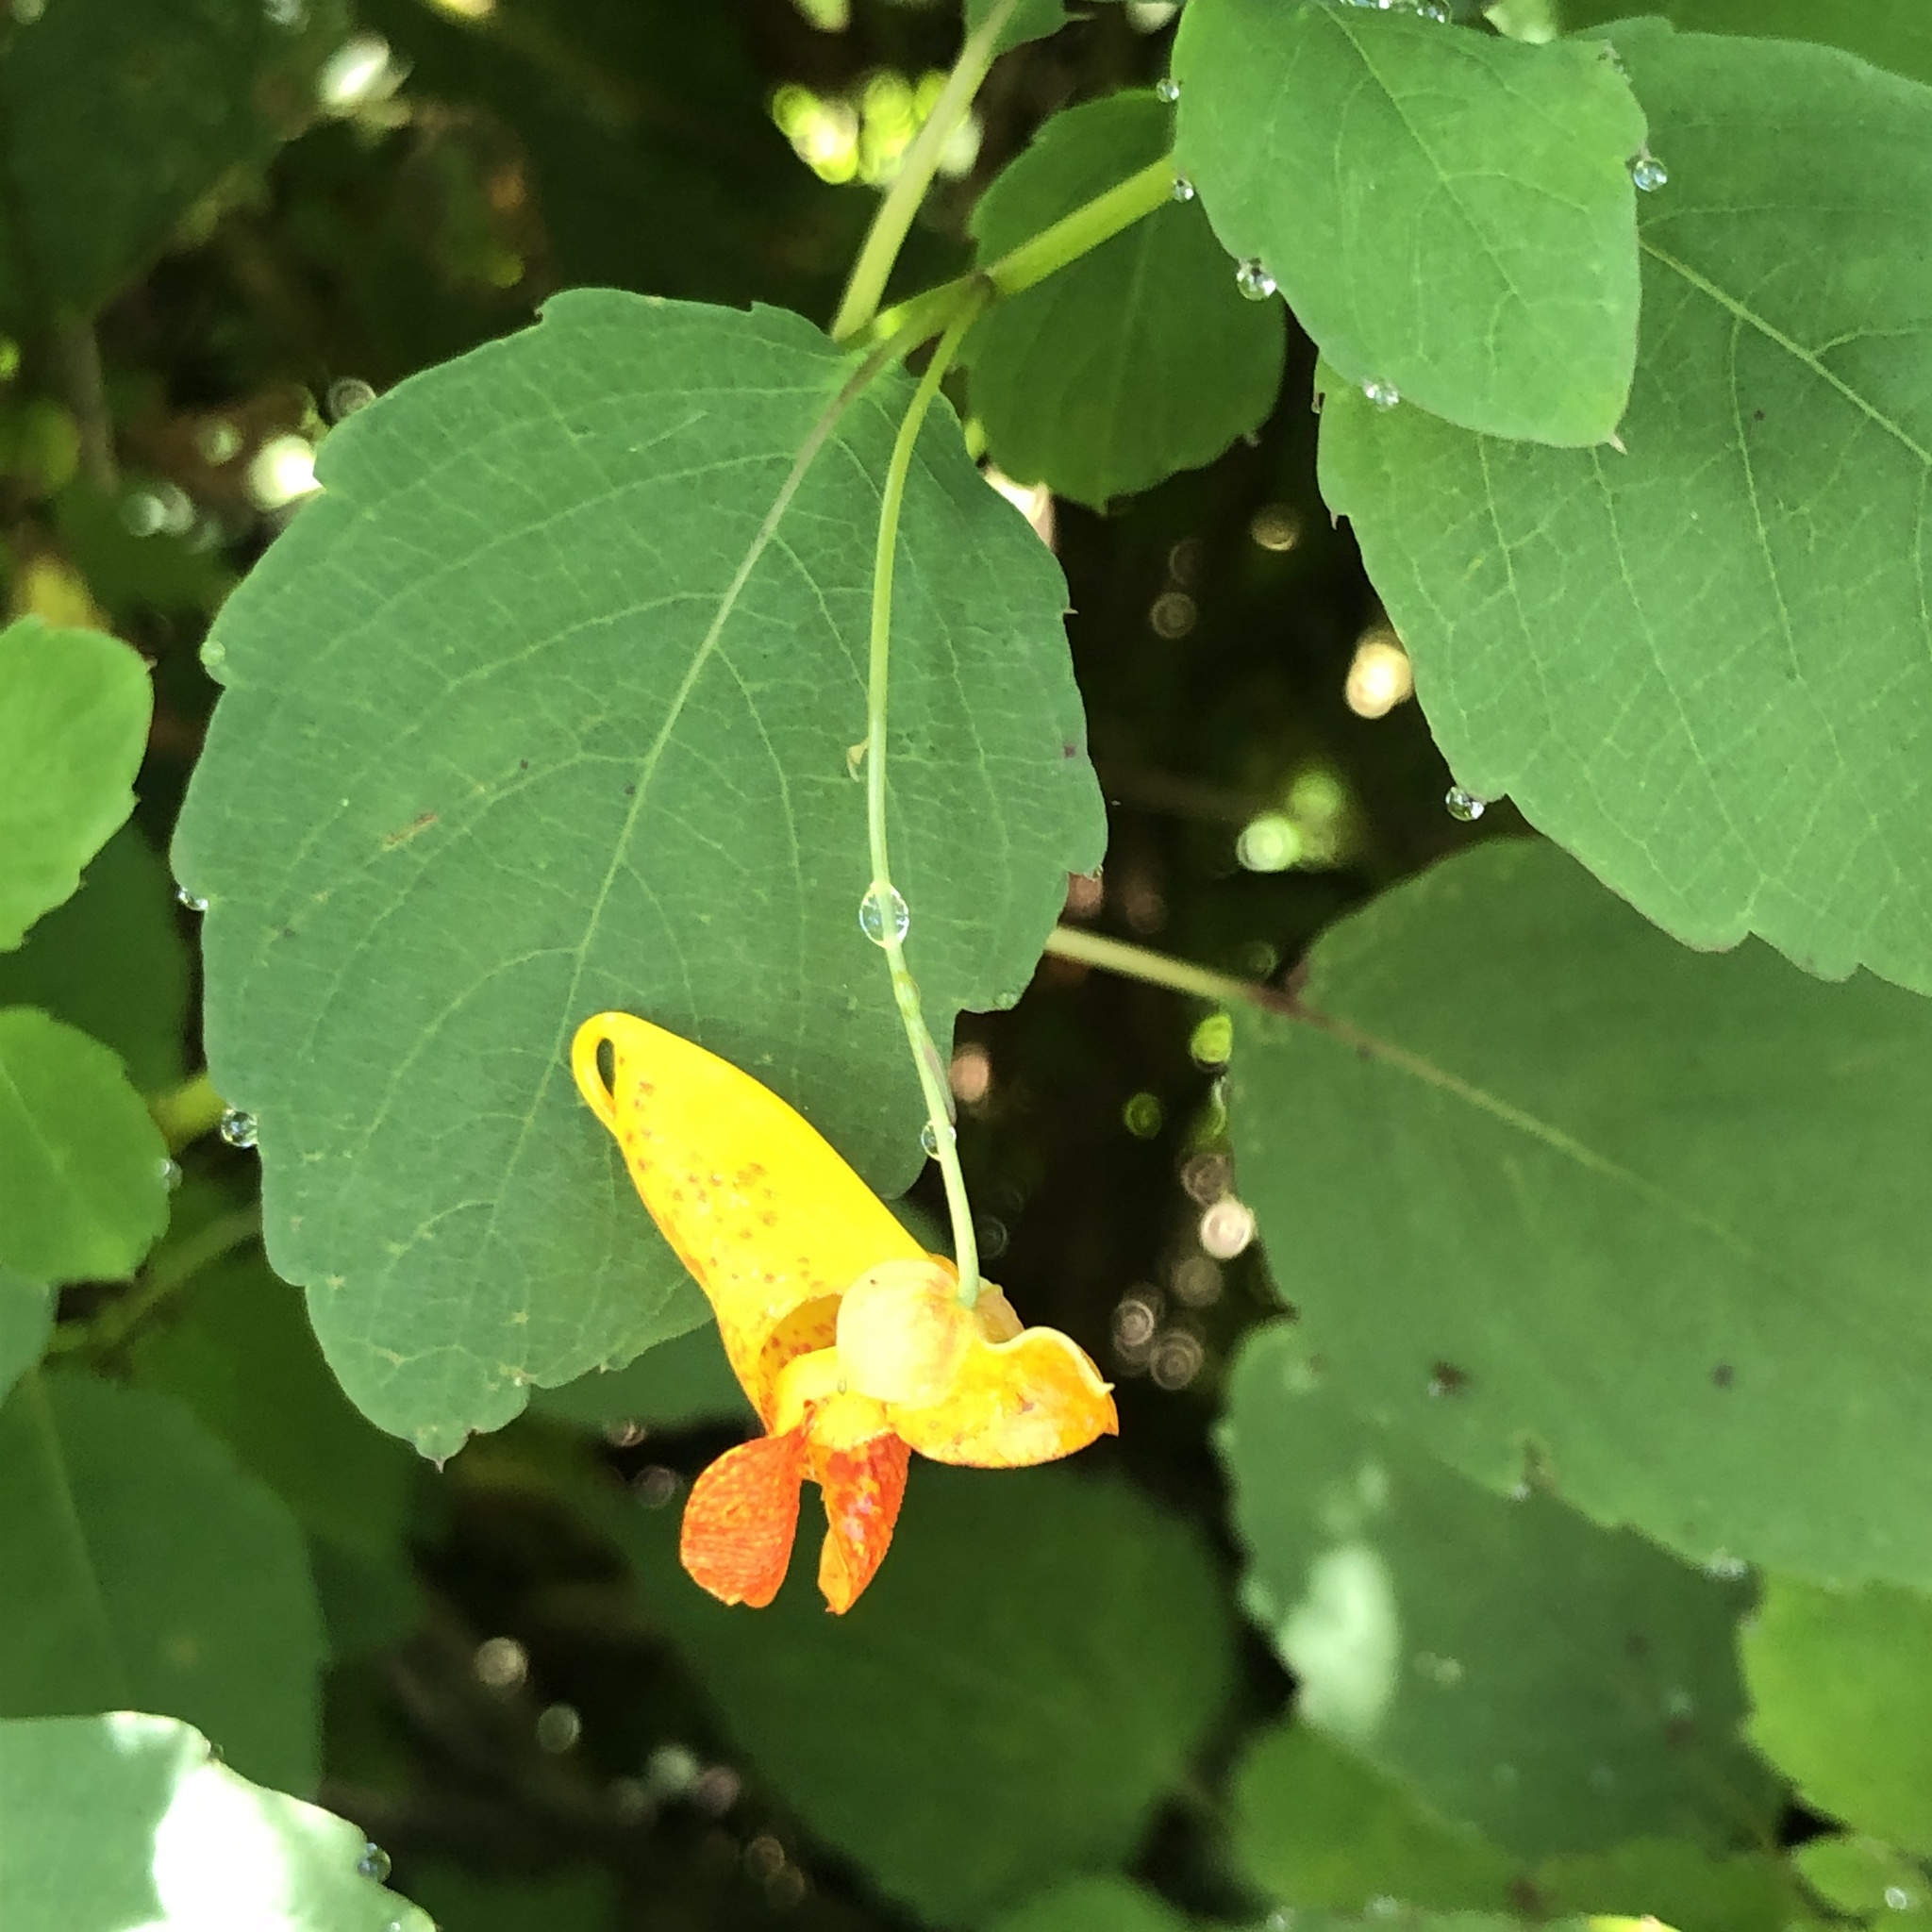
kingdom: Plantae
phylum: Tracheophyta
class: Magnoliopsida
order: Ericales
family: Balsaminaceae
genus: Impatiens
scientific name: Impatiens capensis
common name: Orange balsam
